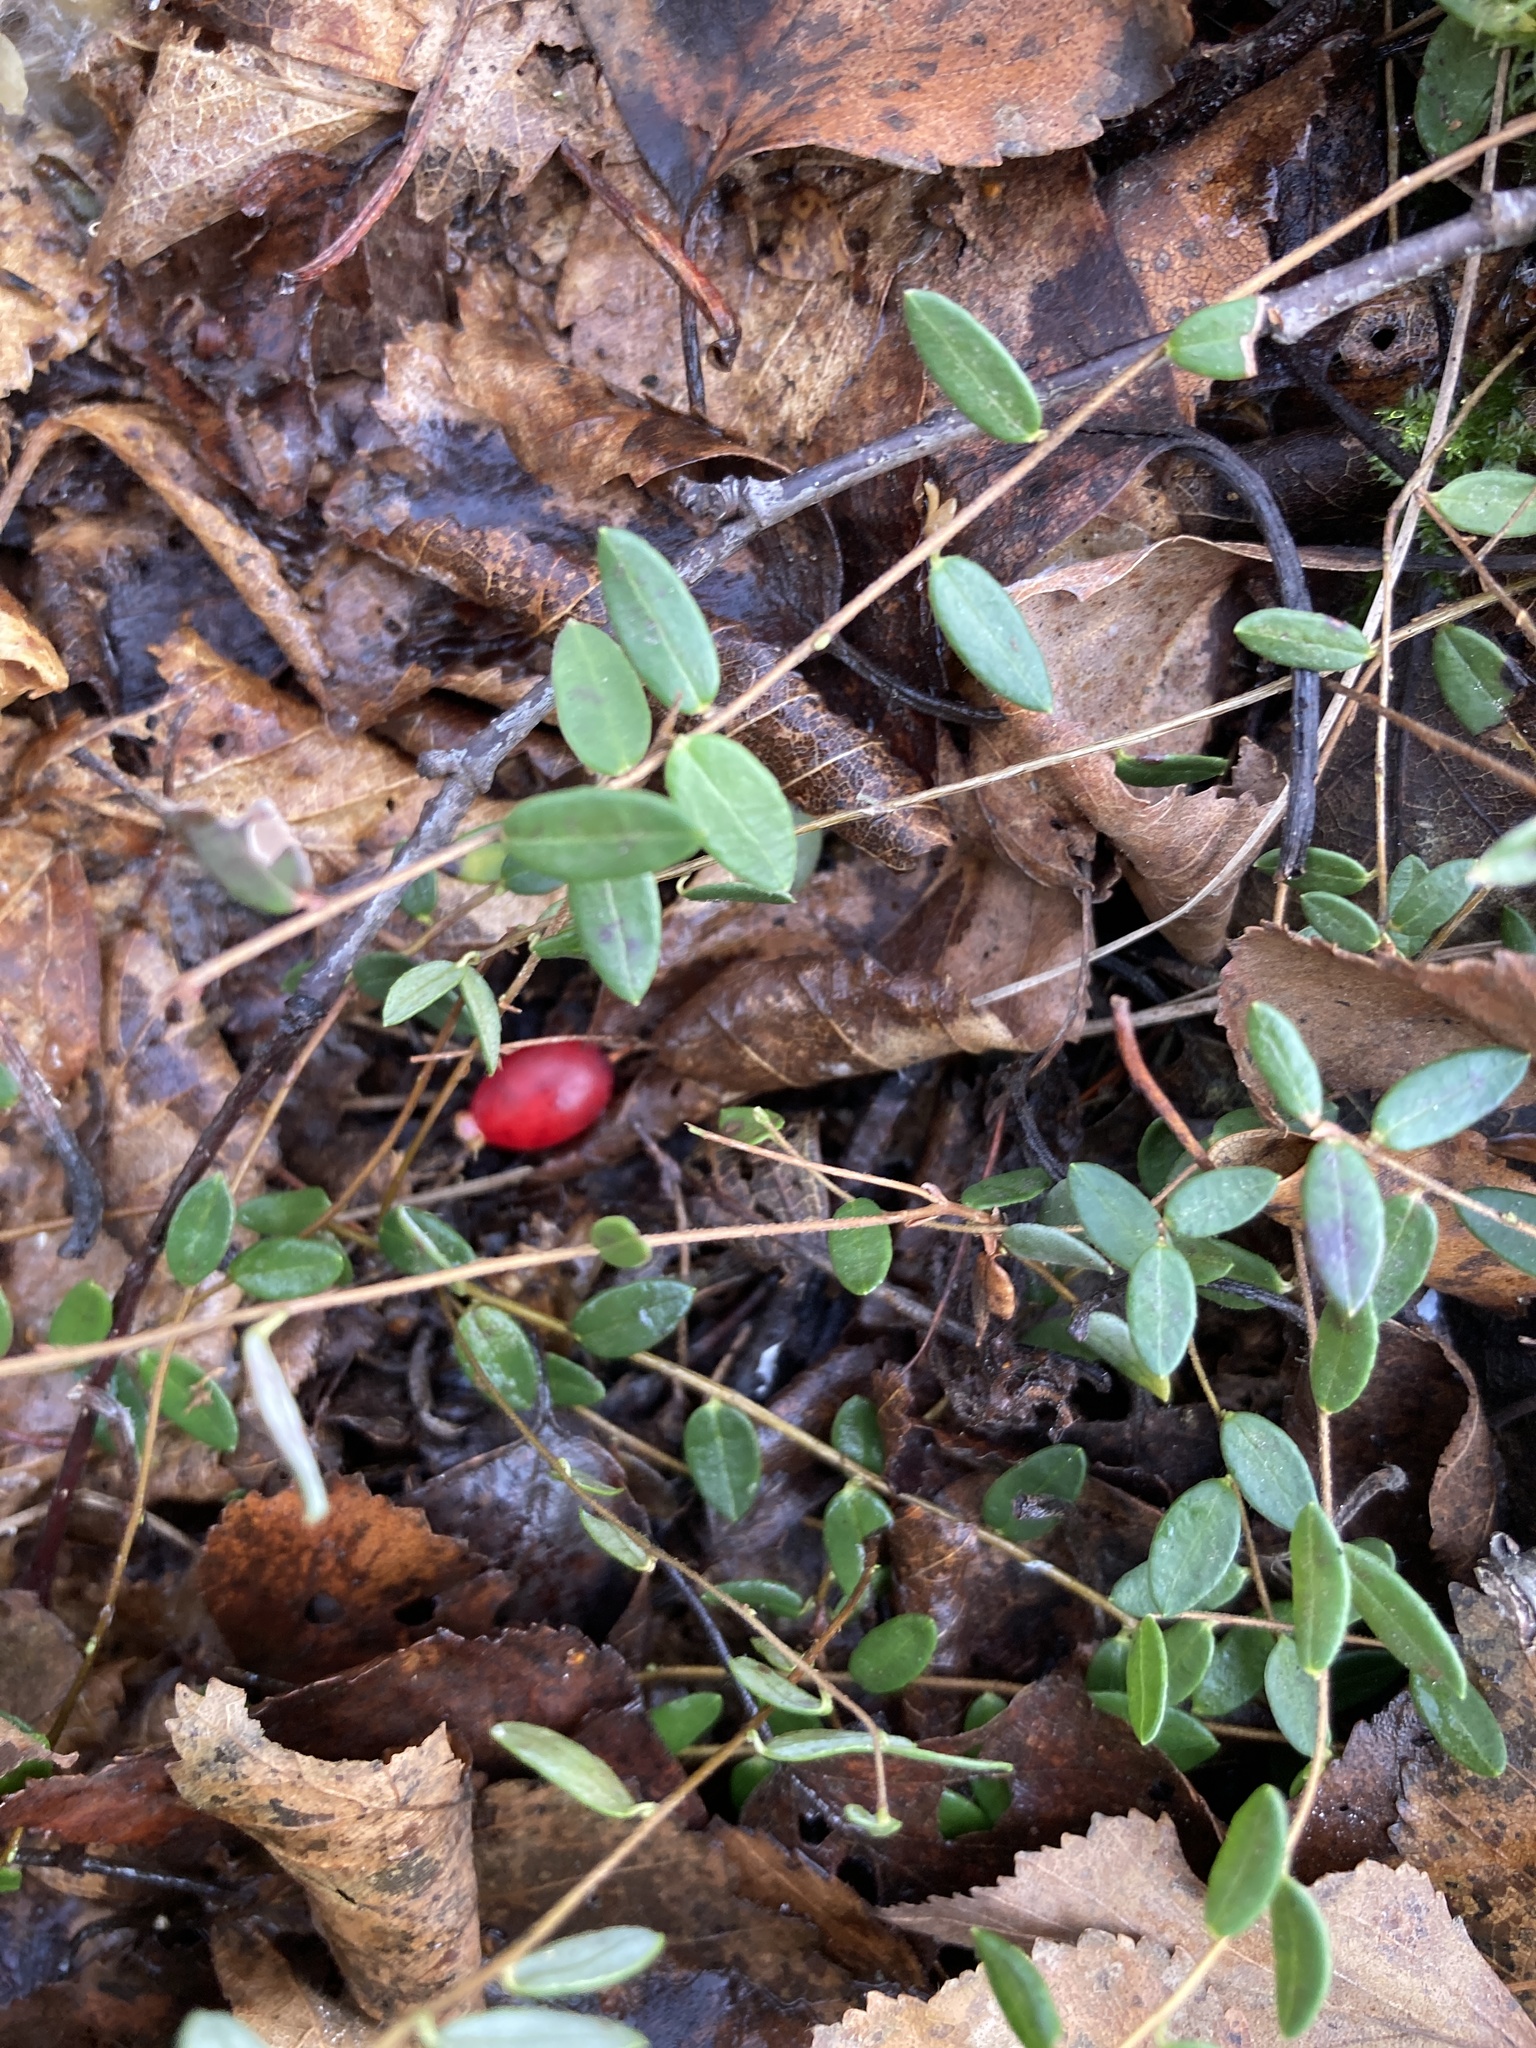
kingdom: Plantae
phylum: Tracheophyta
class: Magnoliopsida
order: Ericales
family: Ericaceae
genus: Vaccinium
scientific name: Vaccinium oxycoccos
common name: Cranberry
